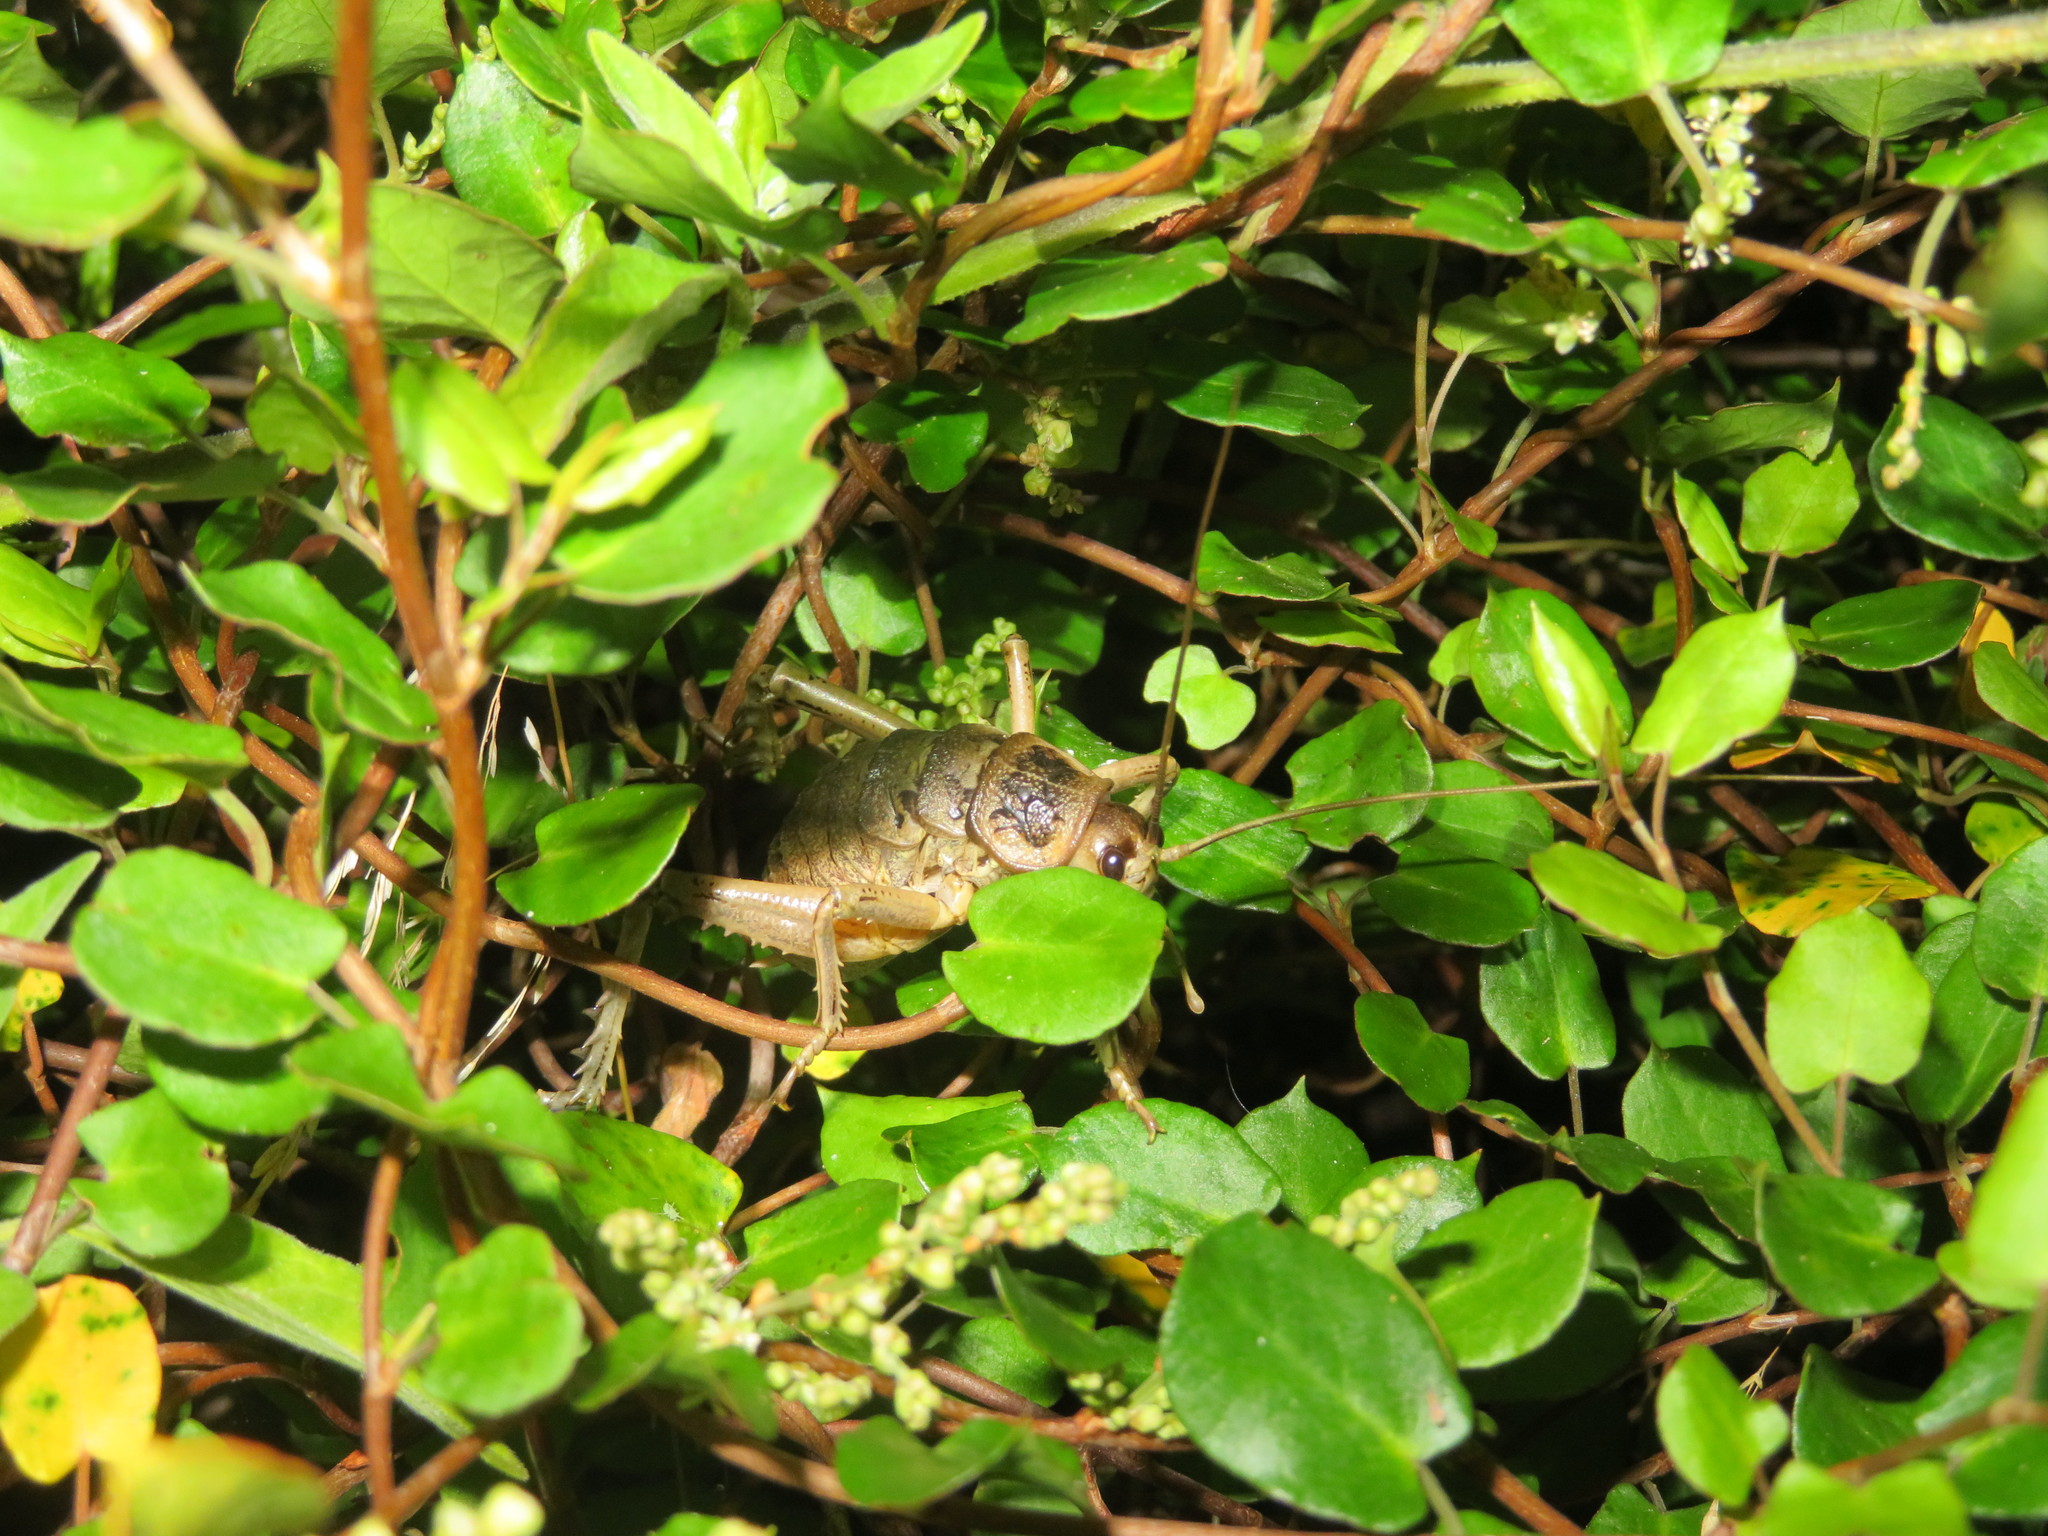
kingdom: Animalia
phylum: Arthropoda
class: Insecta
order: Orthoptera
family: Anostostomatidae
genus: Deinacrida
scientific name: Deinacrida rugosa
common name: Stephens island weta
